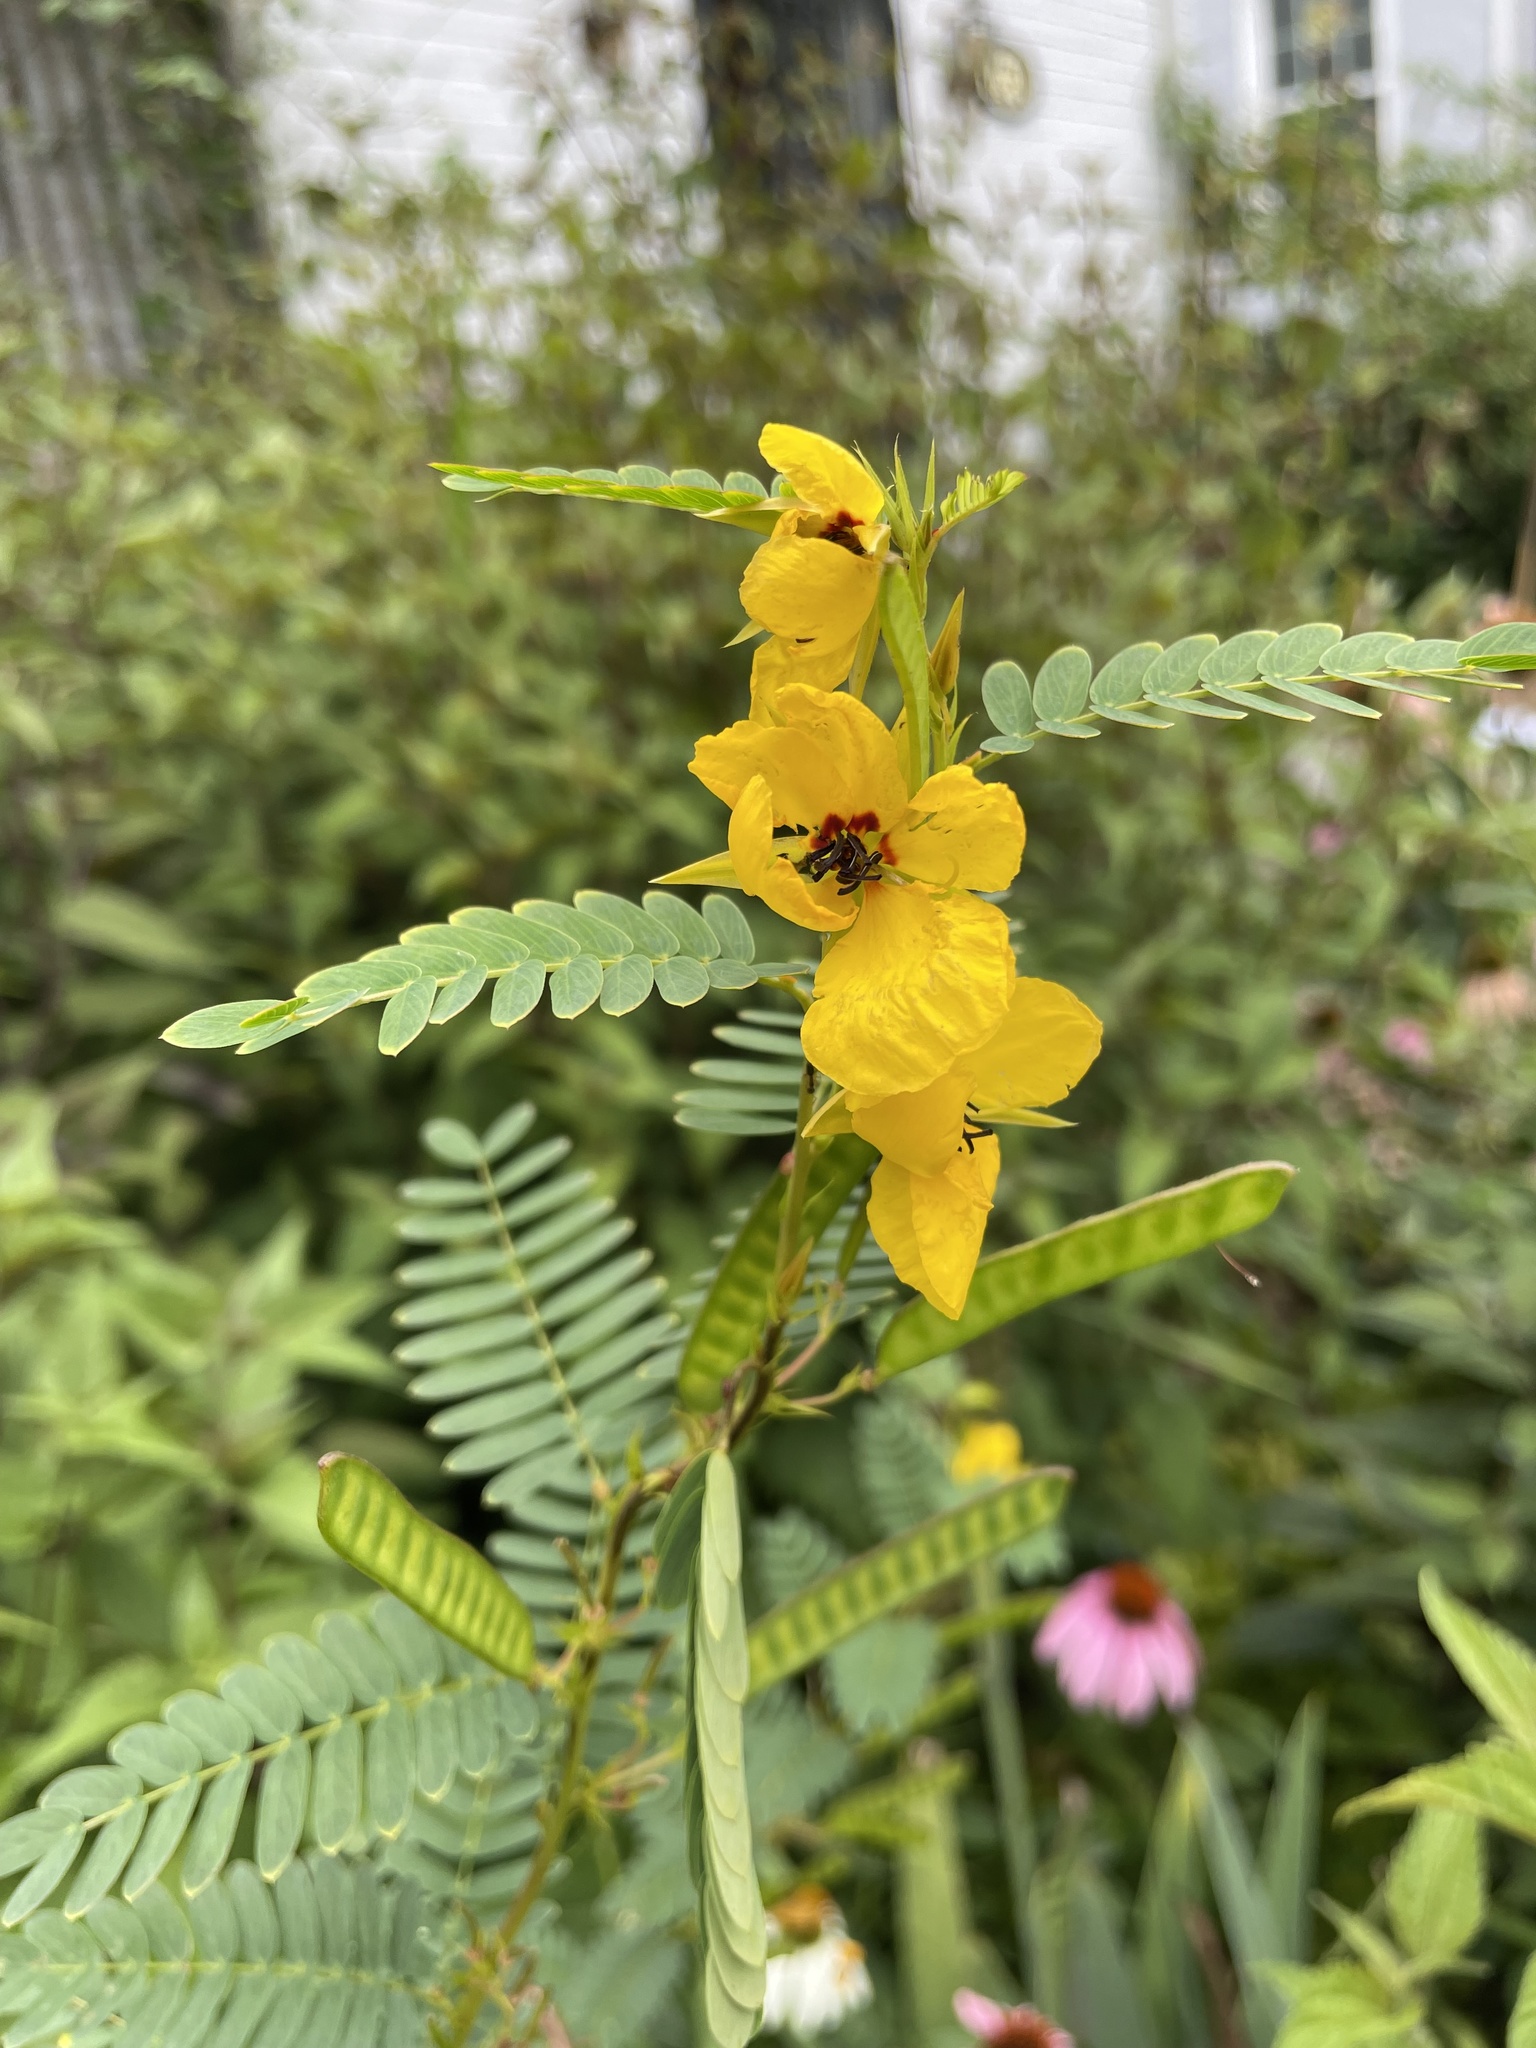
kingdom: Plantae
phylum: Tracheophyta
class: Magnoliopsida
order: Fabales
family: Fabaceae
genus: Chamaecrista
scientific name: Chamaecrista fasciculata
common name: Golden cassia
